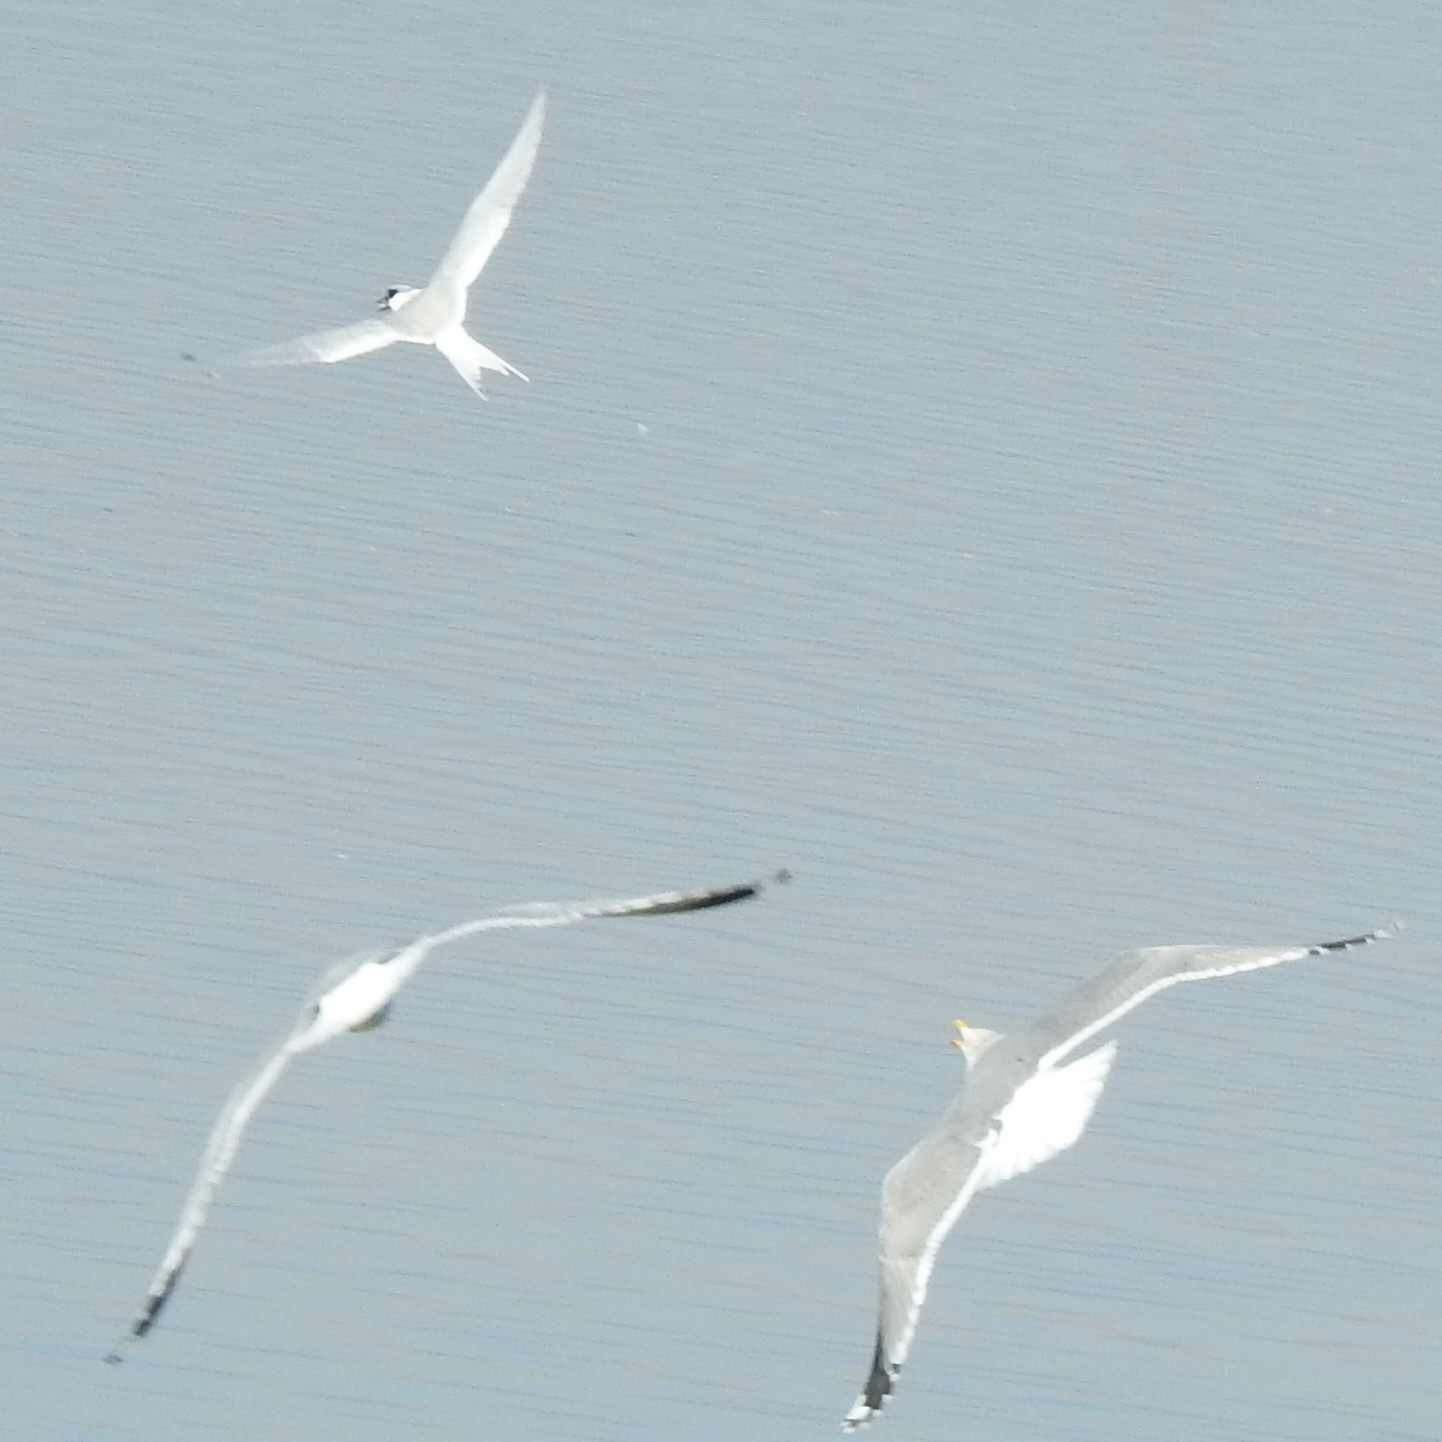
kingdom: Animalia
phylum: Chordata
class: Aves
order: Charadriiformes
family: Laridae
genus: Sterna
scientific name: Sterna forsteri
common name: Forster's tern
